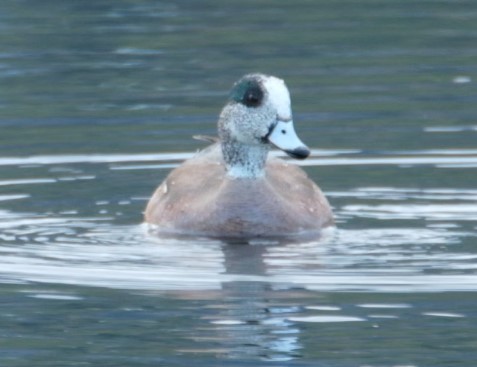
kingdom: Animalia
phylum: Chordata
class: Aves
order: Anseriformes
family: Anatidae
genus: Mareca
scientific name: Mareca americana
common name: American wigeon
